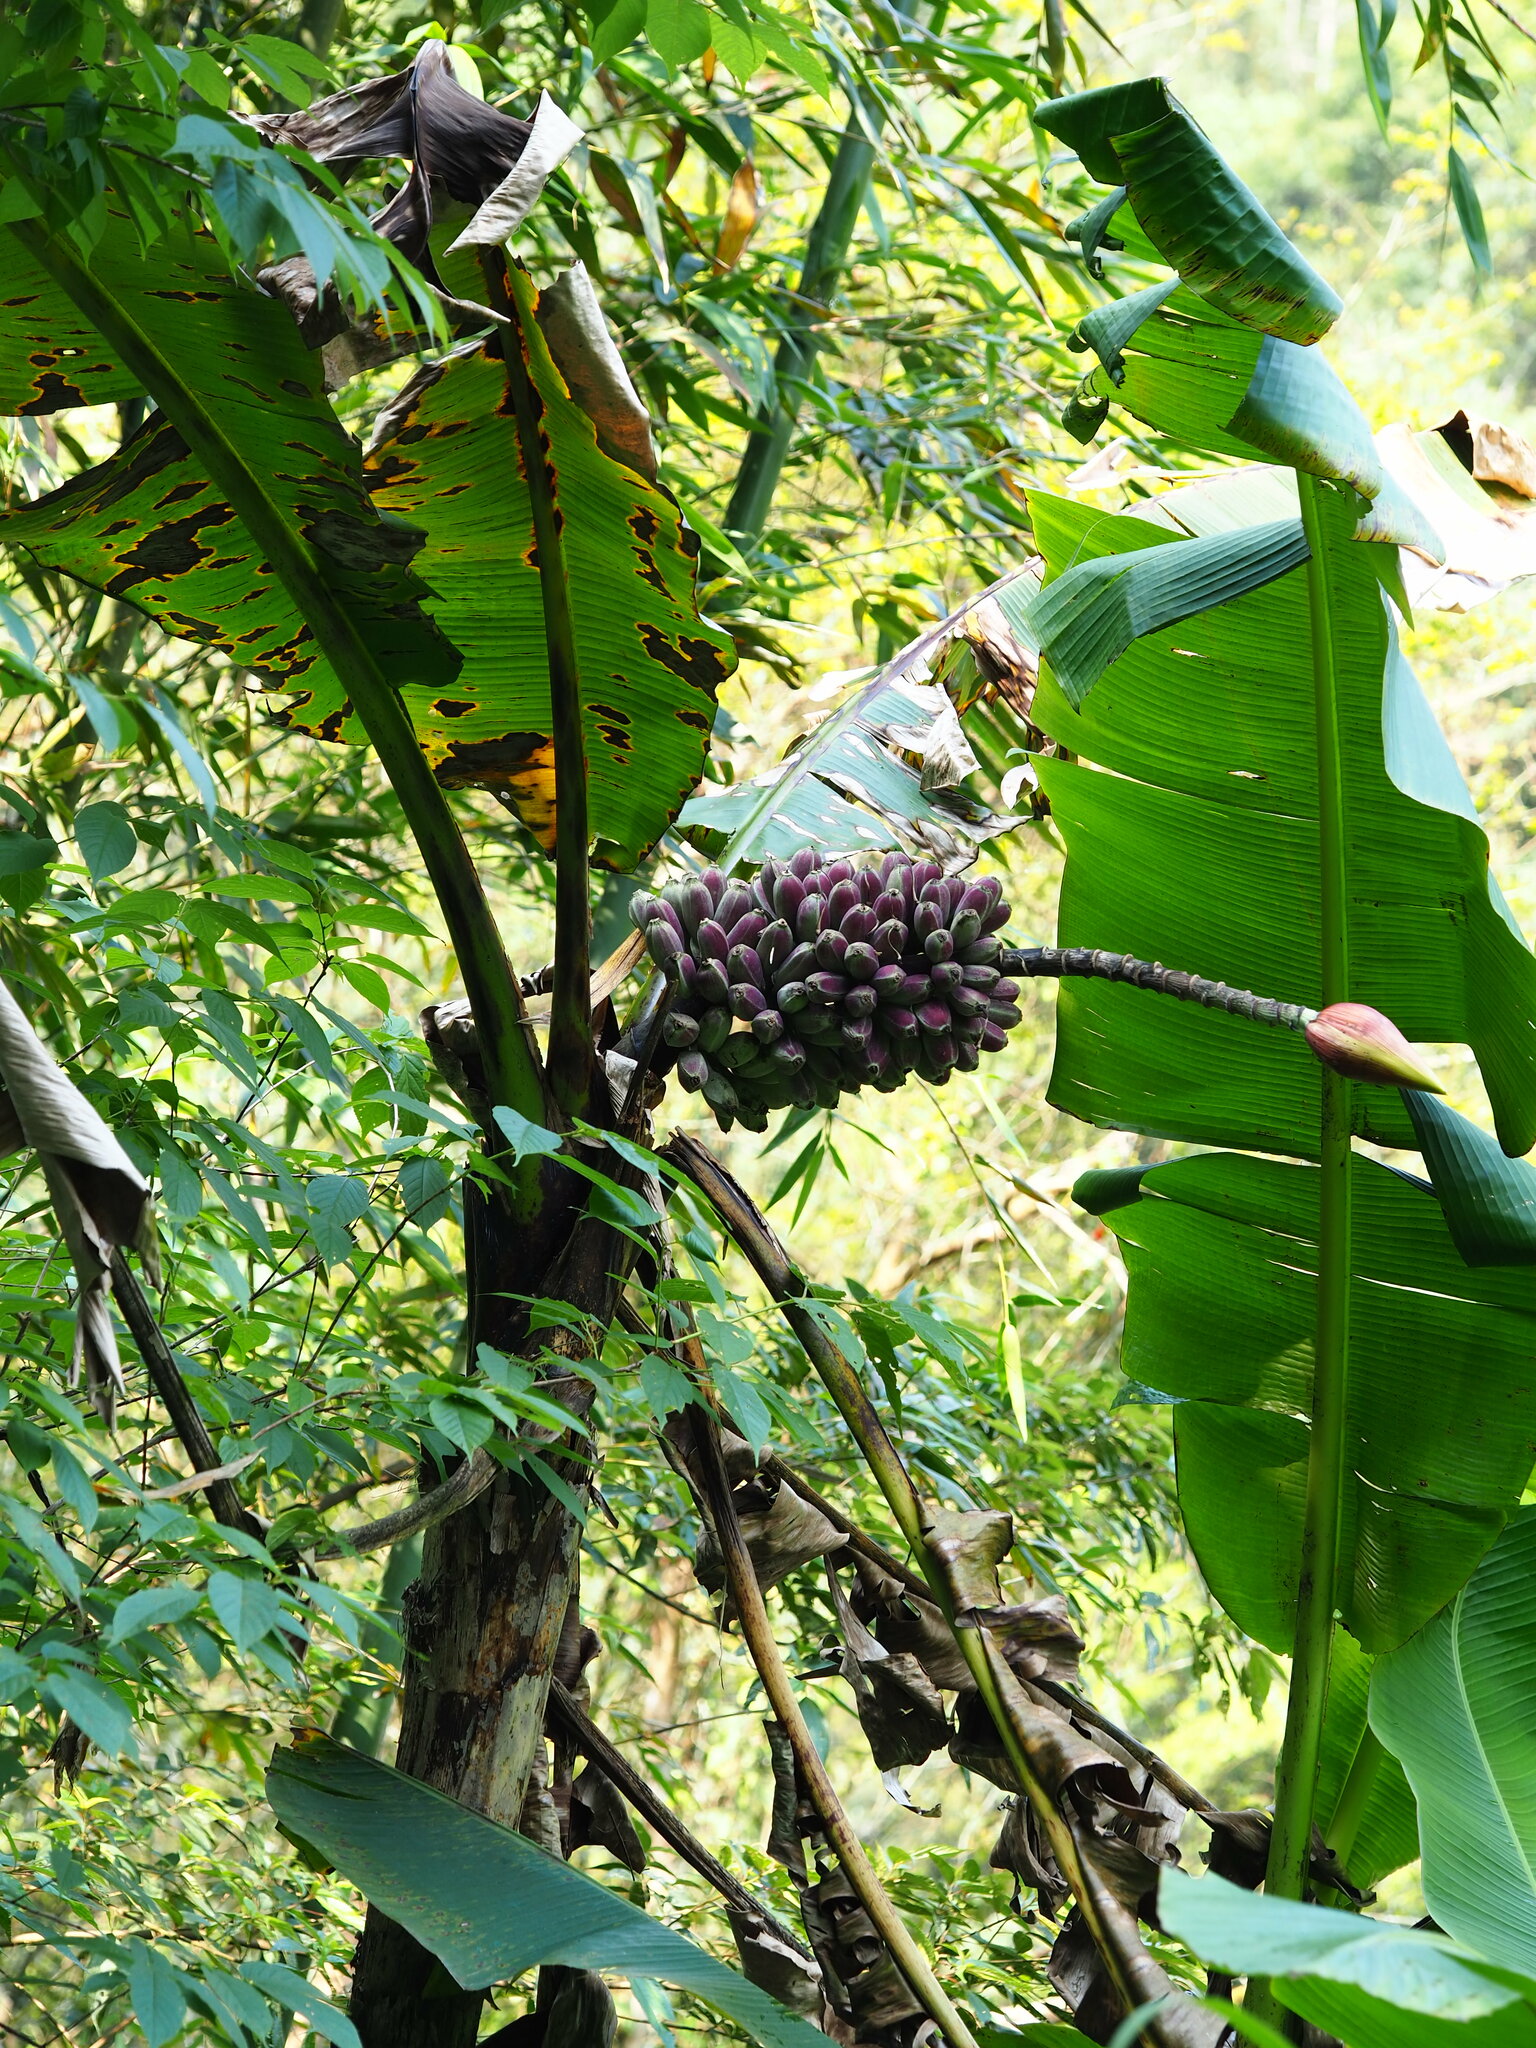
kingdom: Plantae
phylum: Tracheophyta
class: Liliopsida
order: Zingiberales
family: Musaceae
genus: Musa
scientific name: Musa itinerans
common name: Yunnan banana
